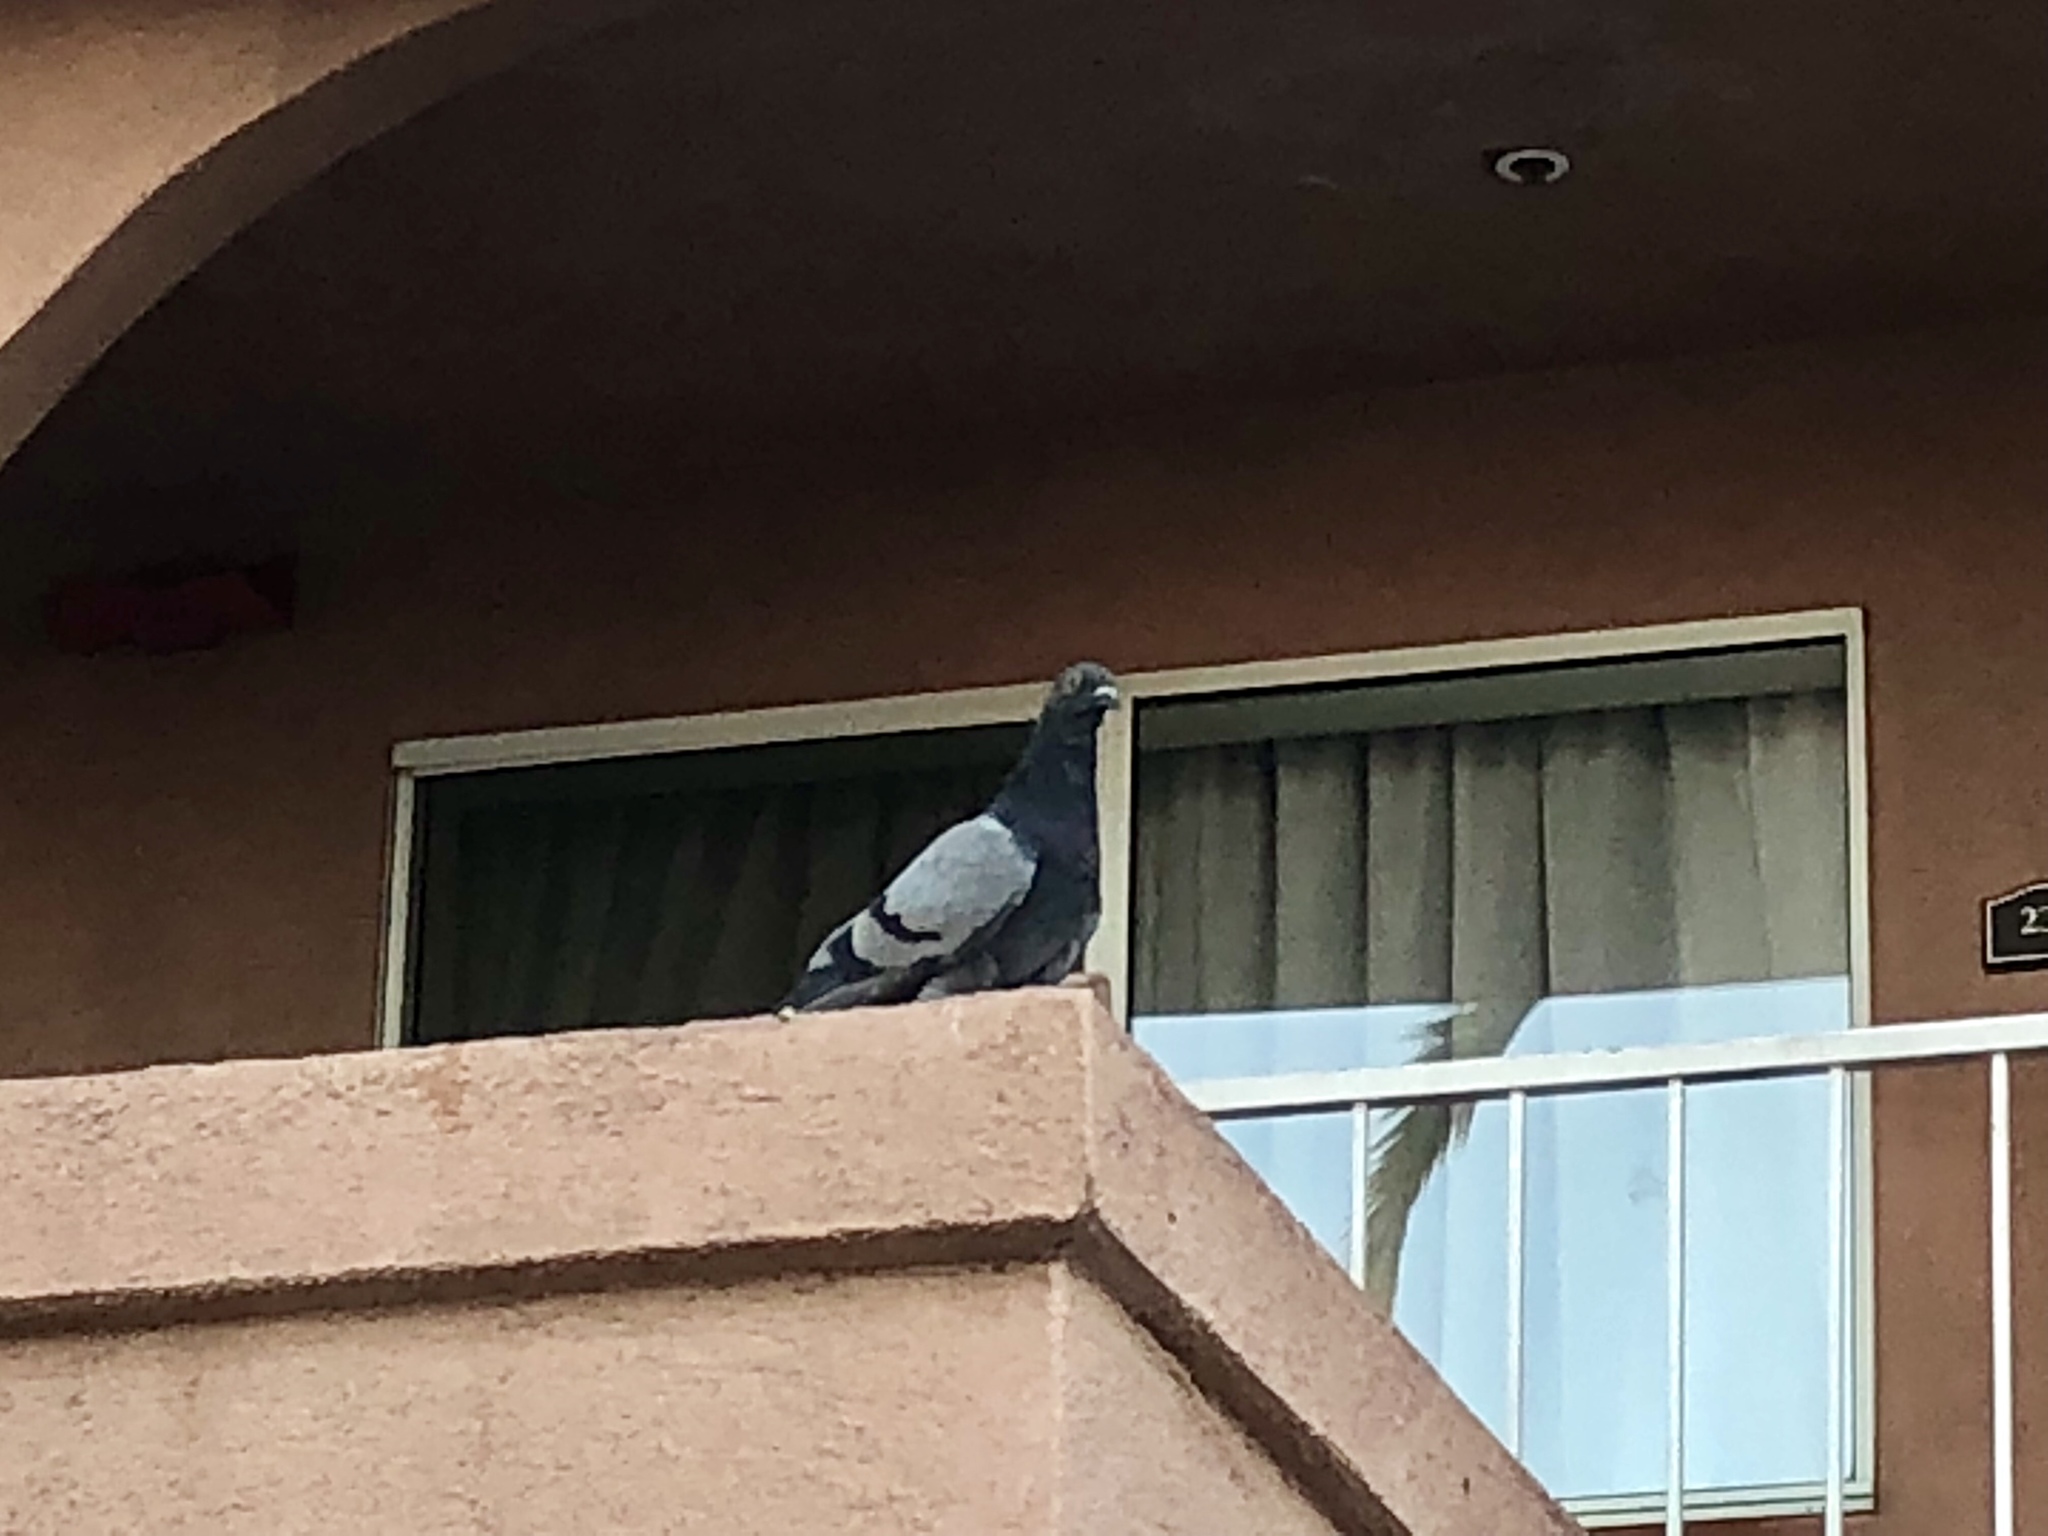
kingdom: Animalia
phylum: Chordata
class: Aves
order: Columbiformes
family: Columbidae
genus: Columba
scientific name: Columba livia
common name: Rock pigeon
